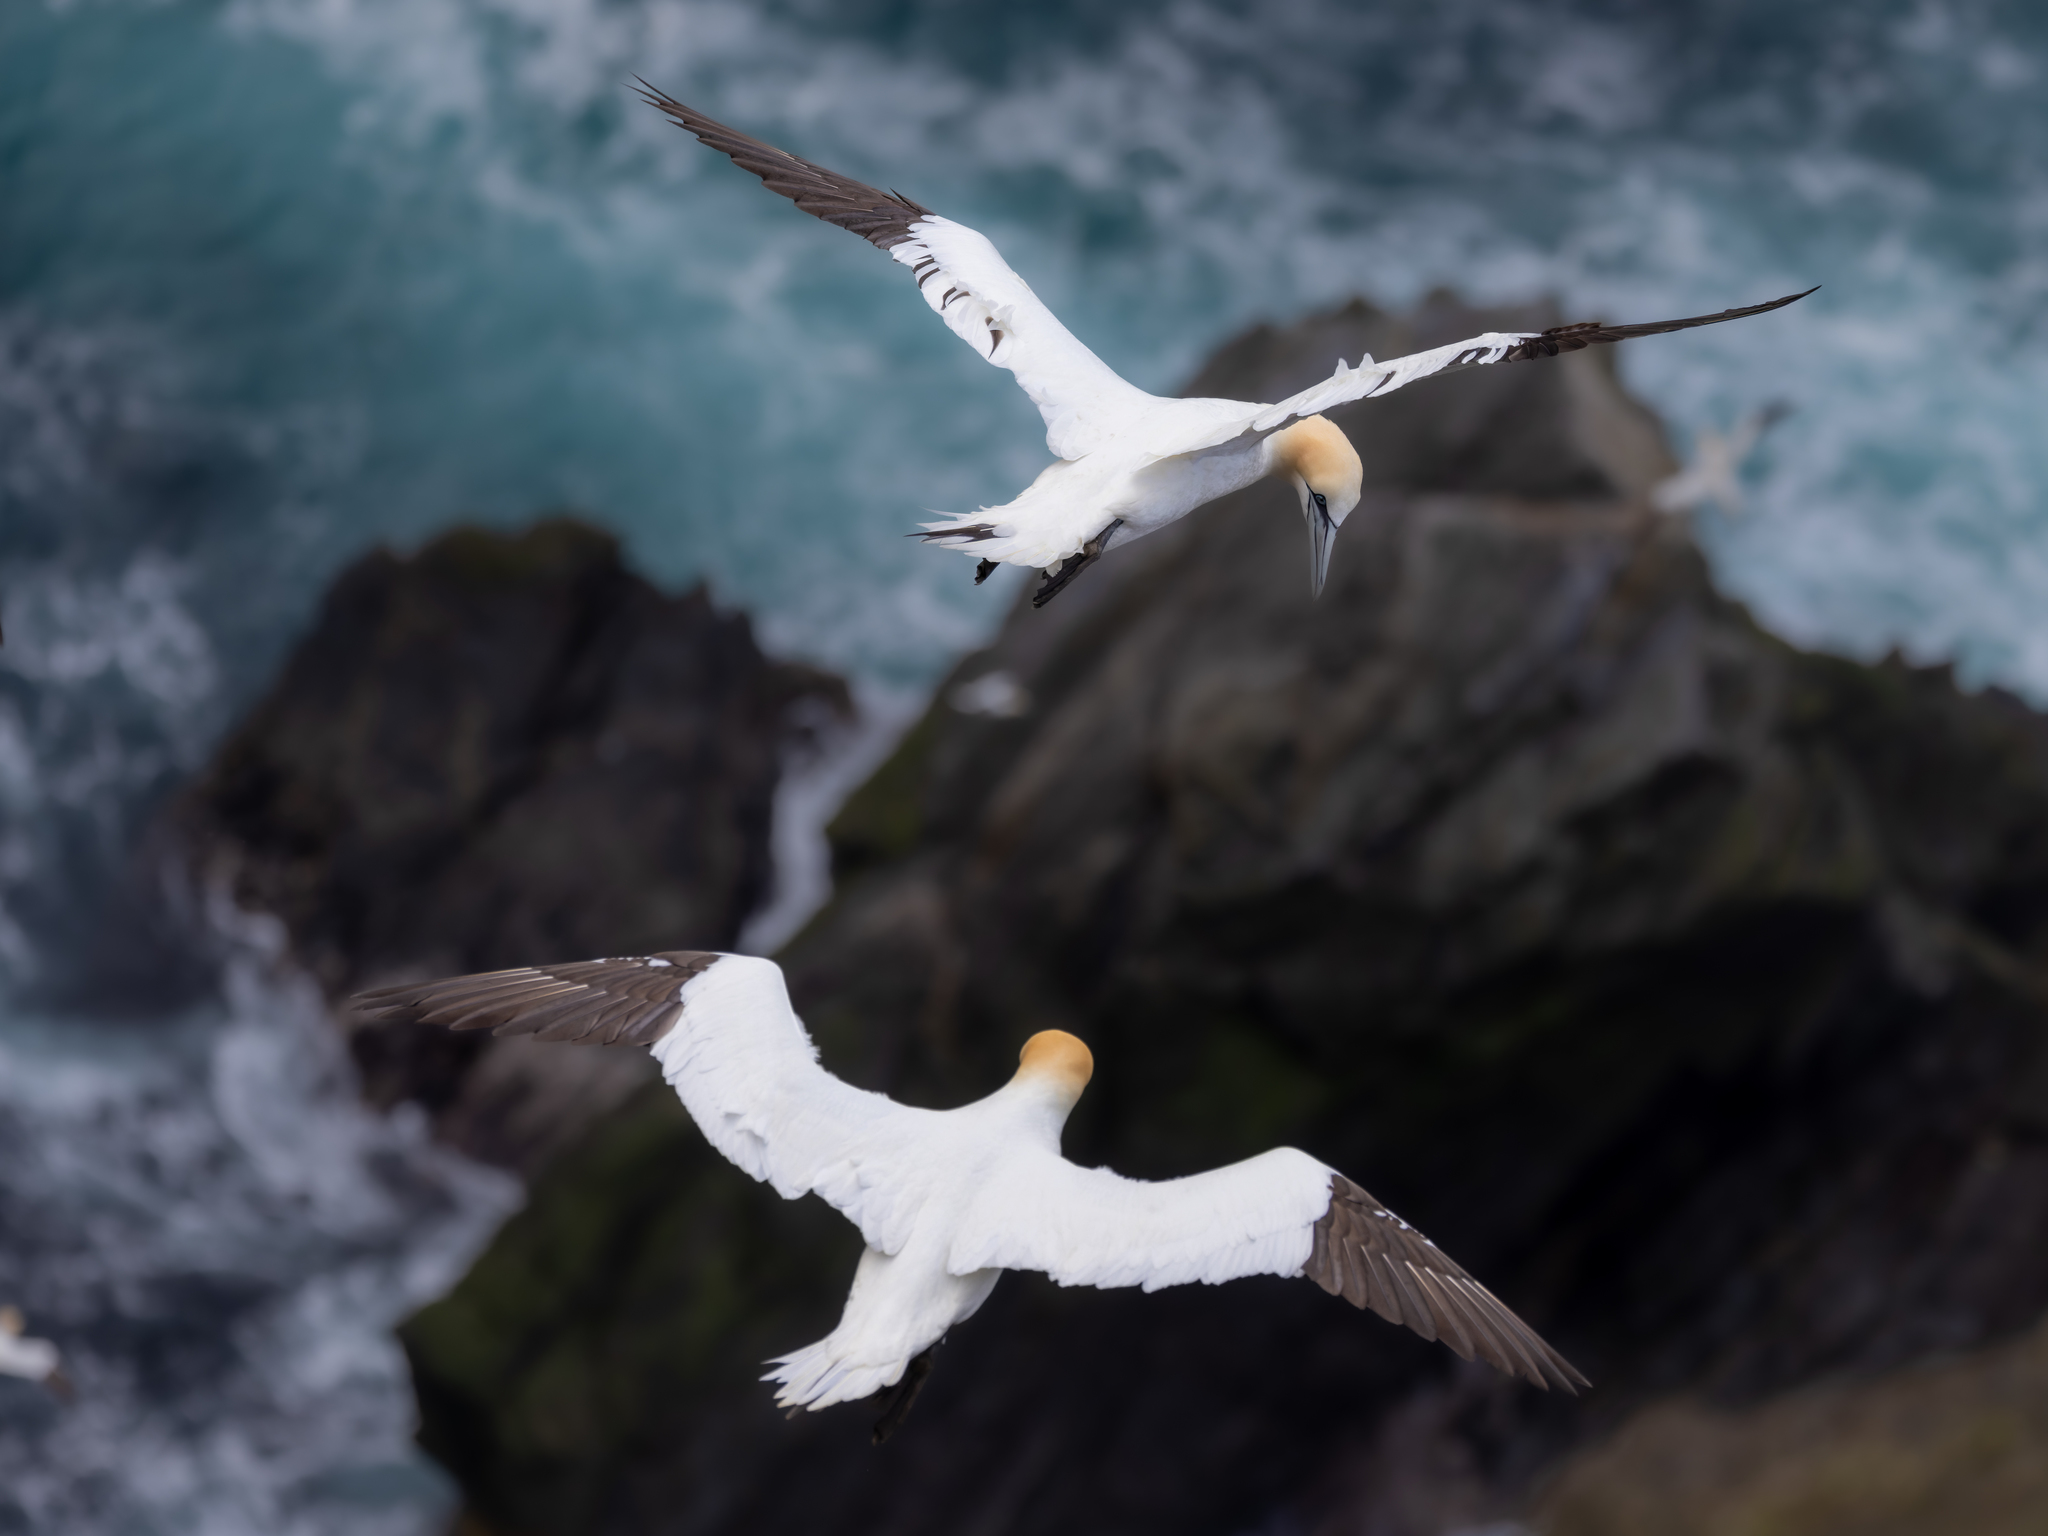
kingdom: Animalia
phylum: Chordata
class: Aves
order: Suliformes
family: Sulidae
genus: Morus
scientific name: Morus bassanus
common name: Northern gannet
